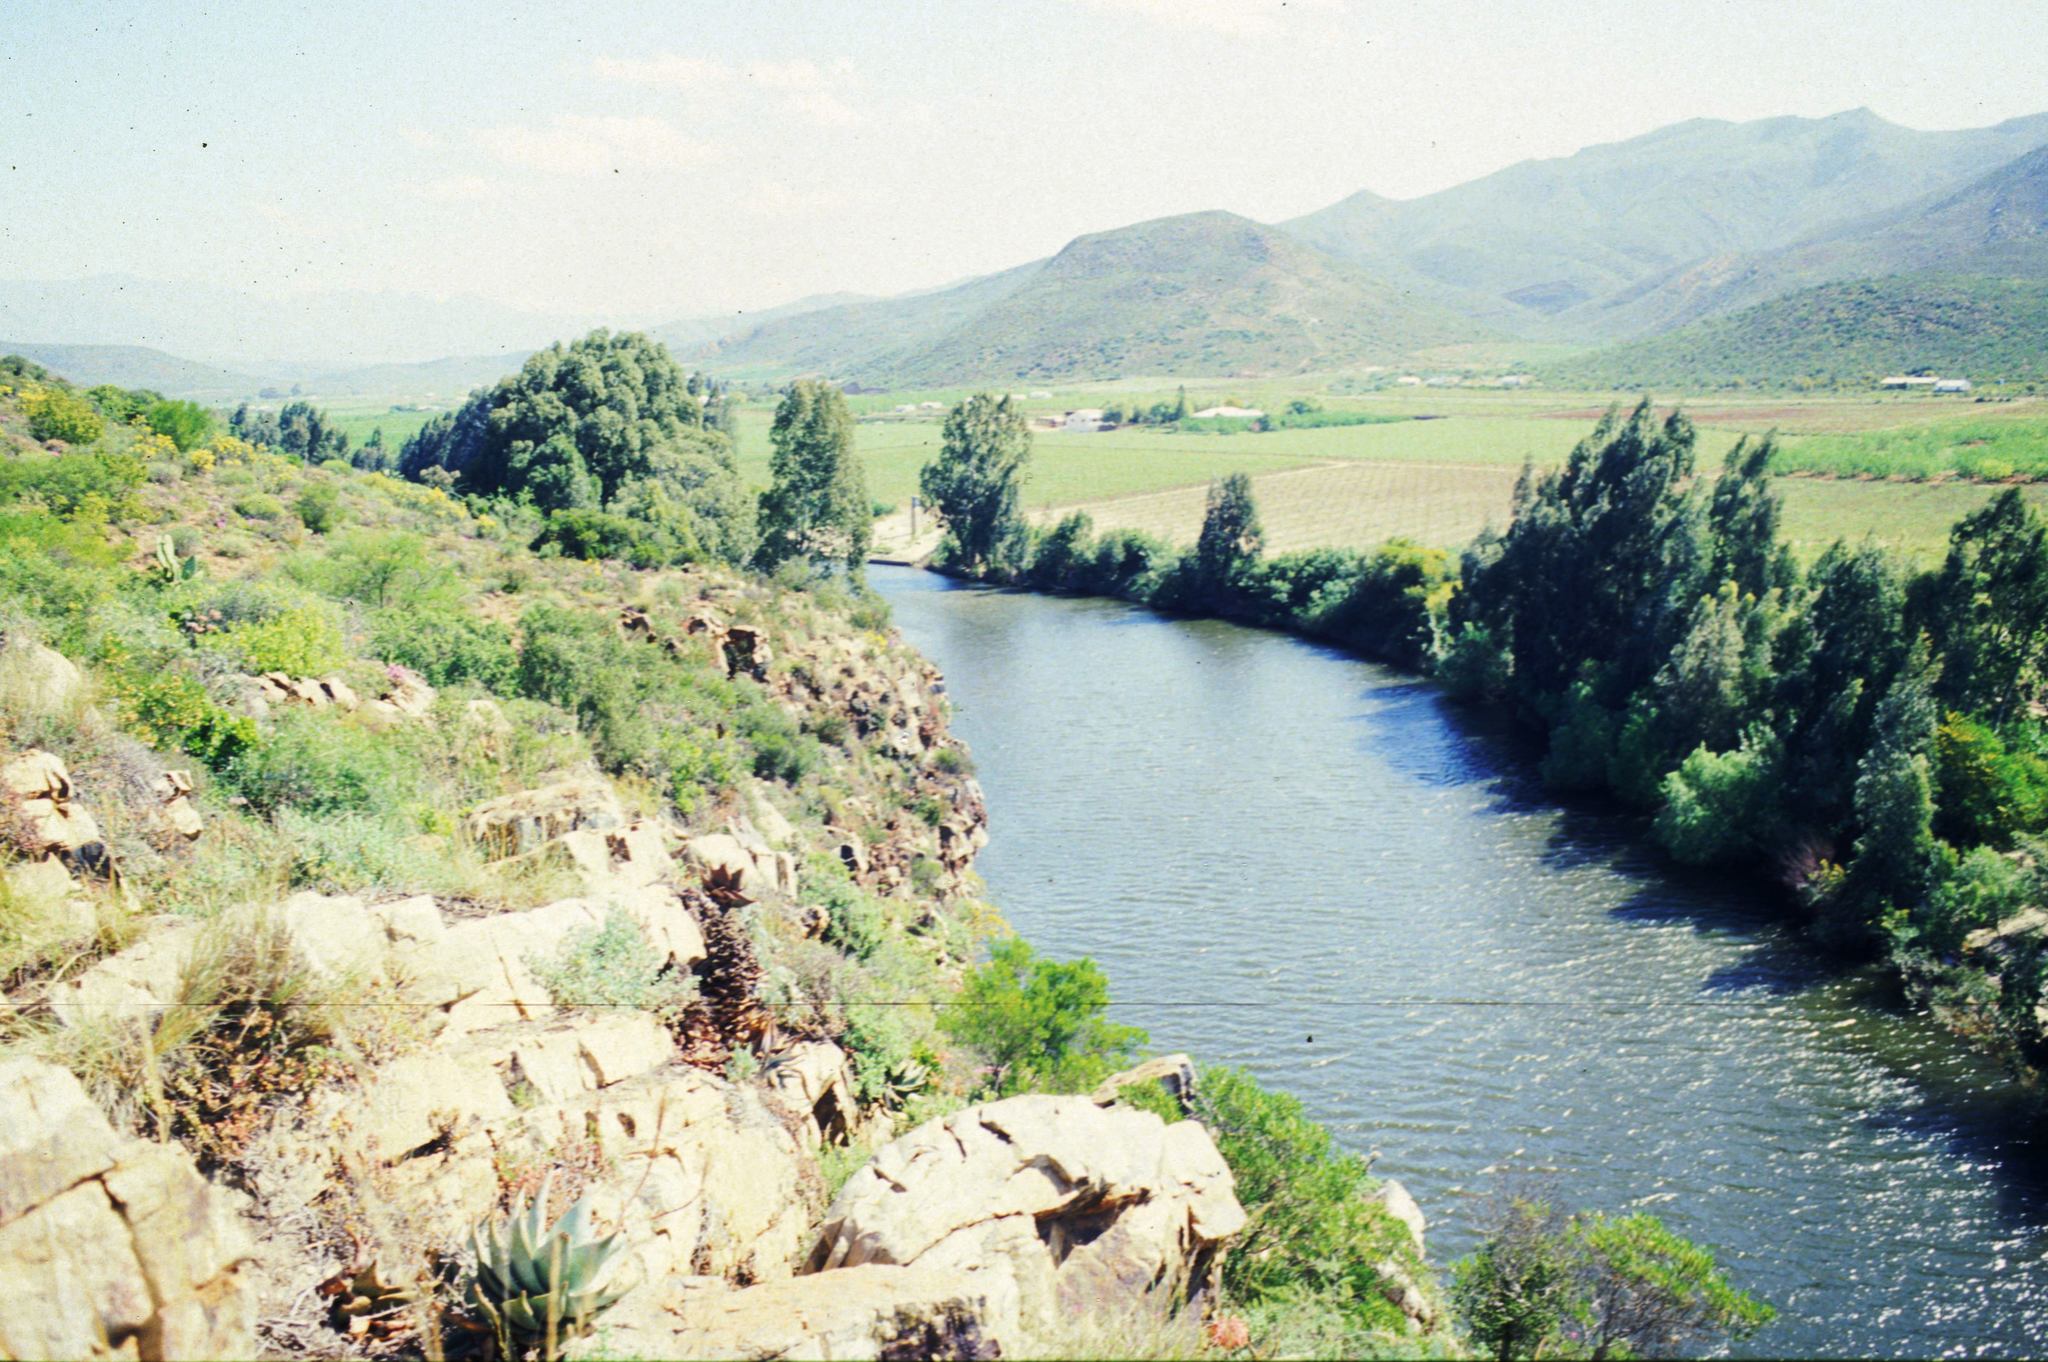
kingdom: Plantae
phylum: Tracheophyta
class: Magnoliopsida
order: Myrtales
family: Myrtaceae
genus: Eucalyptus
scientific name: Eucalyptus camaldulensis
